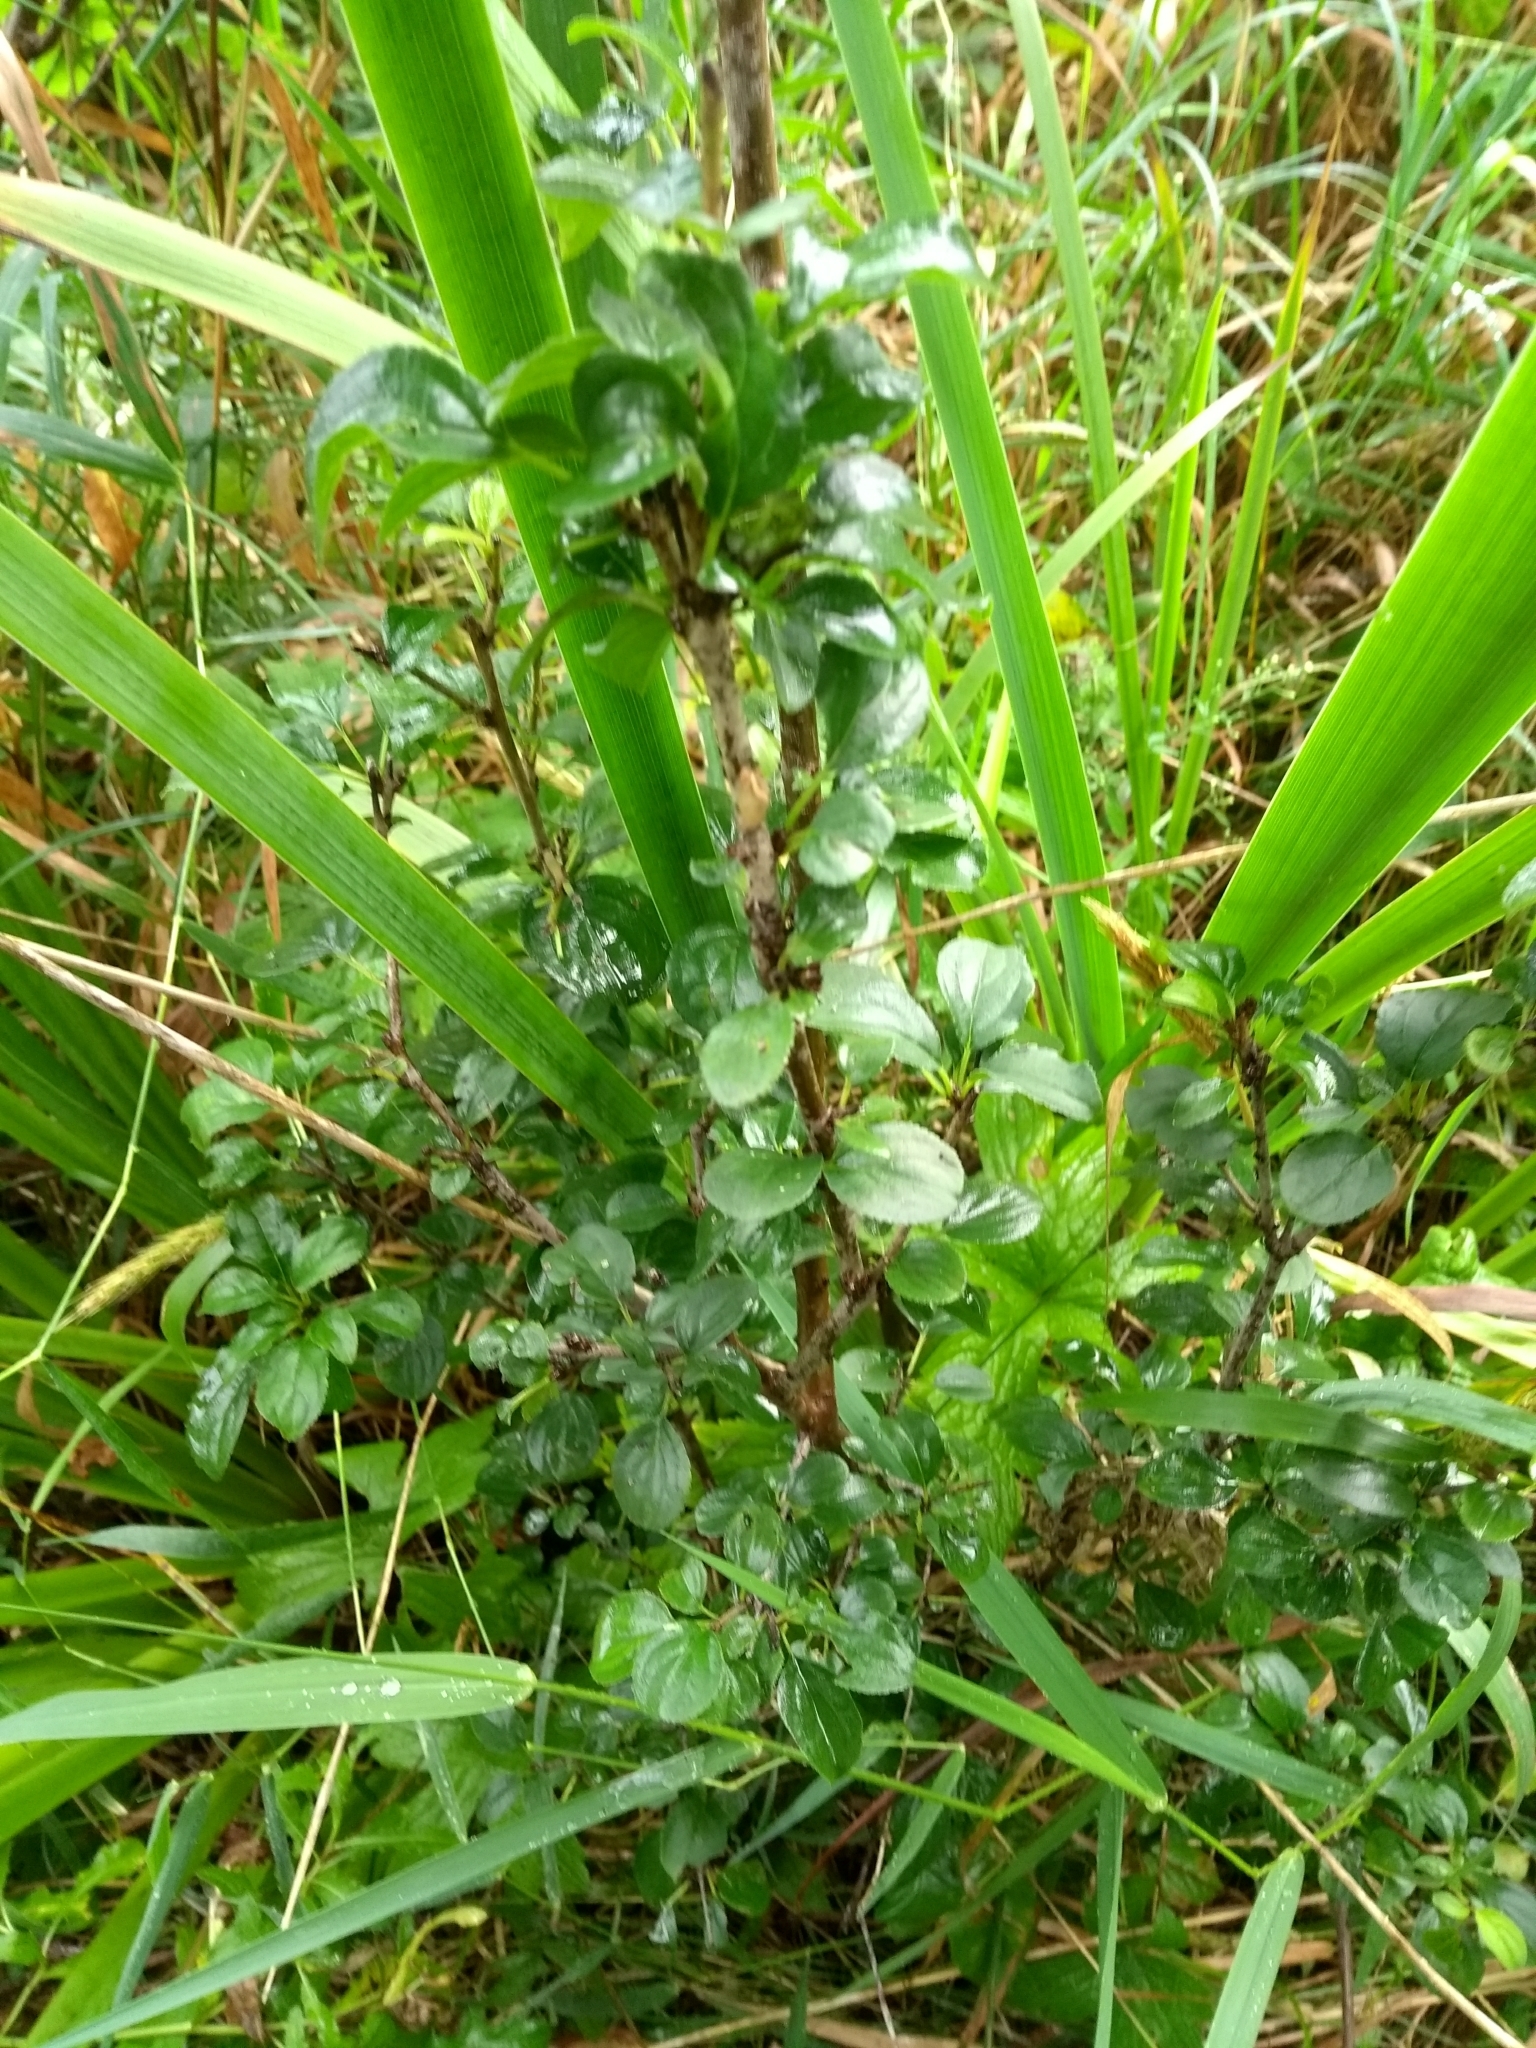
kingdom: Plantae
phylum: Tracheophyta
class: Magnoliopsida
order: Rosales
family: Rhamnaceae
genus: Rhamnus
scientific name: Rhamnus cathartica
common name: Common buckthorn
